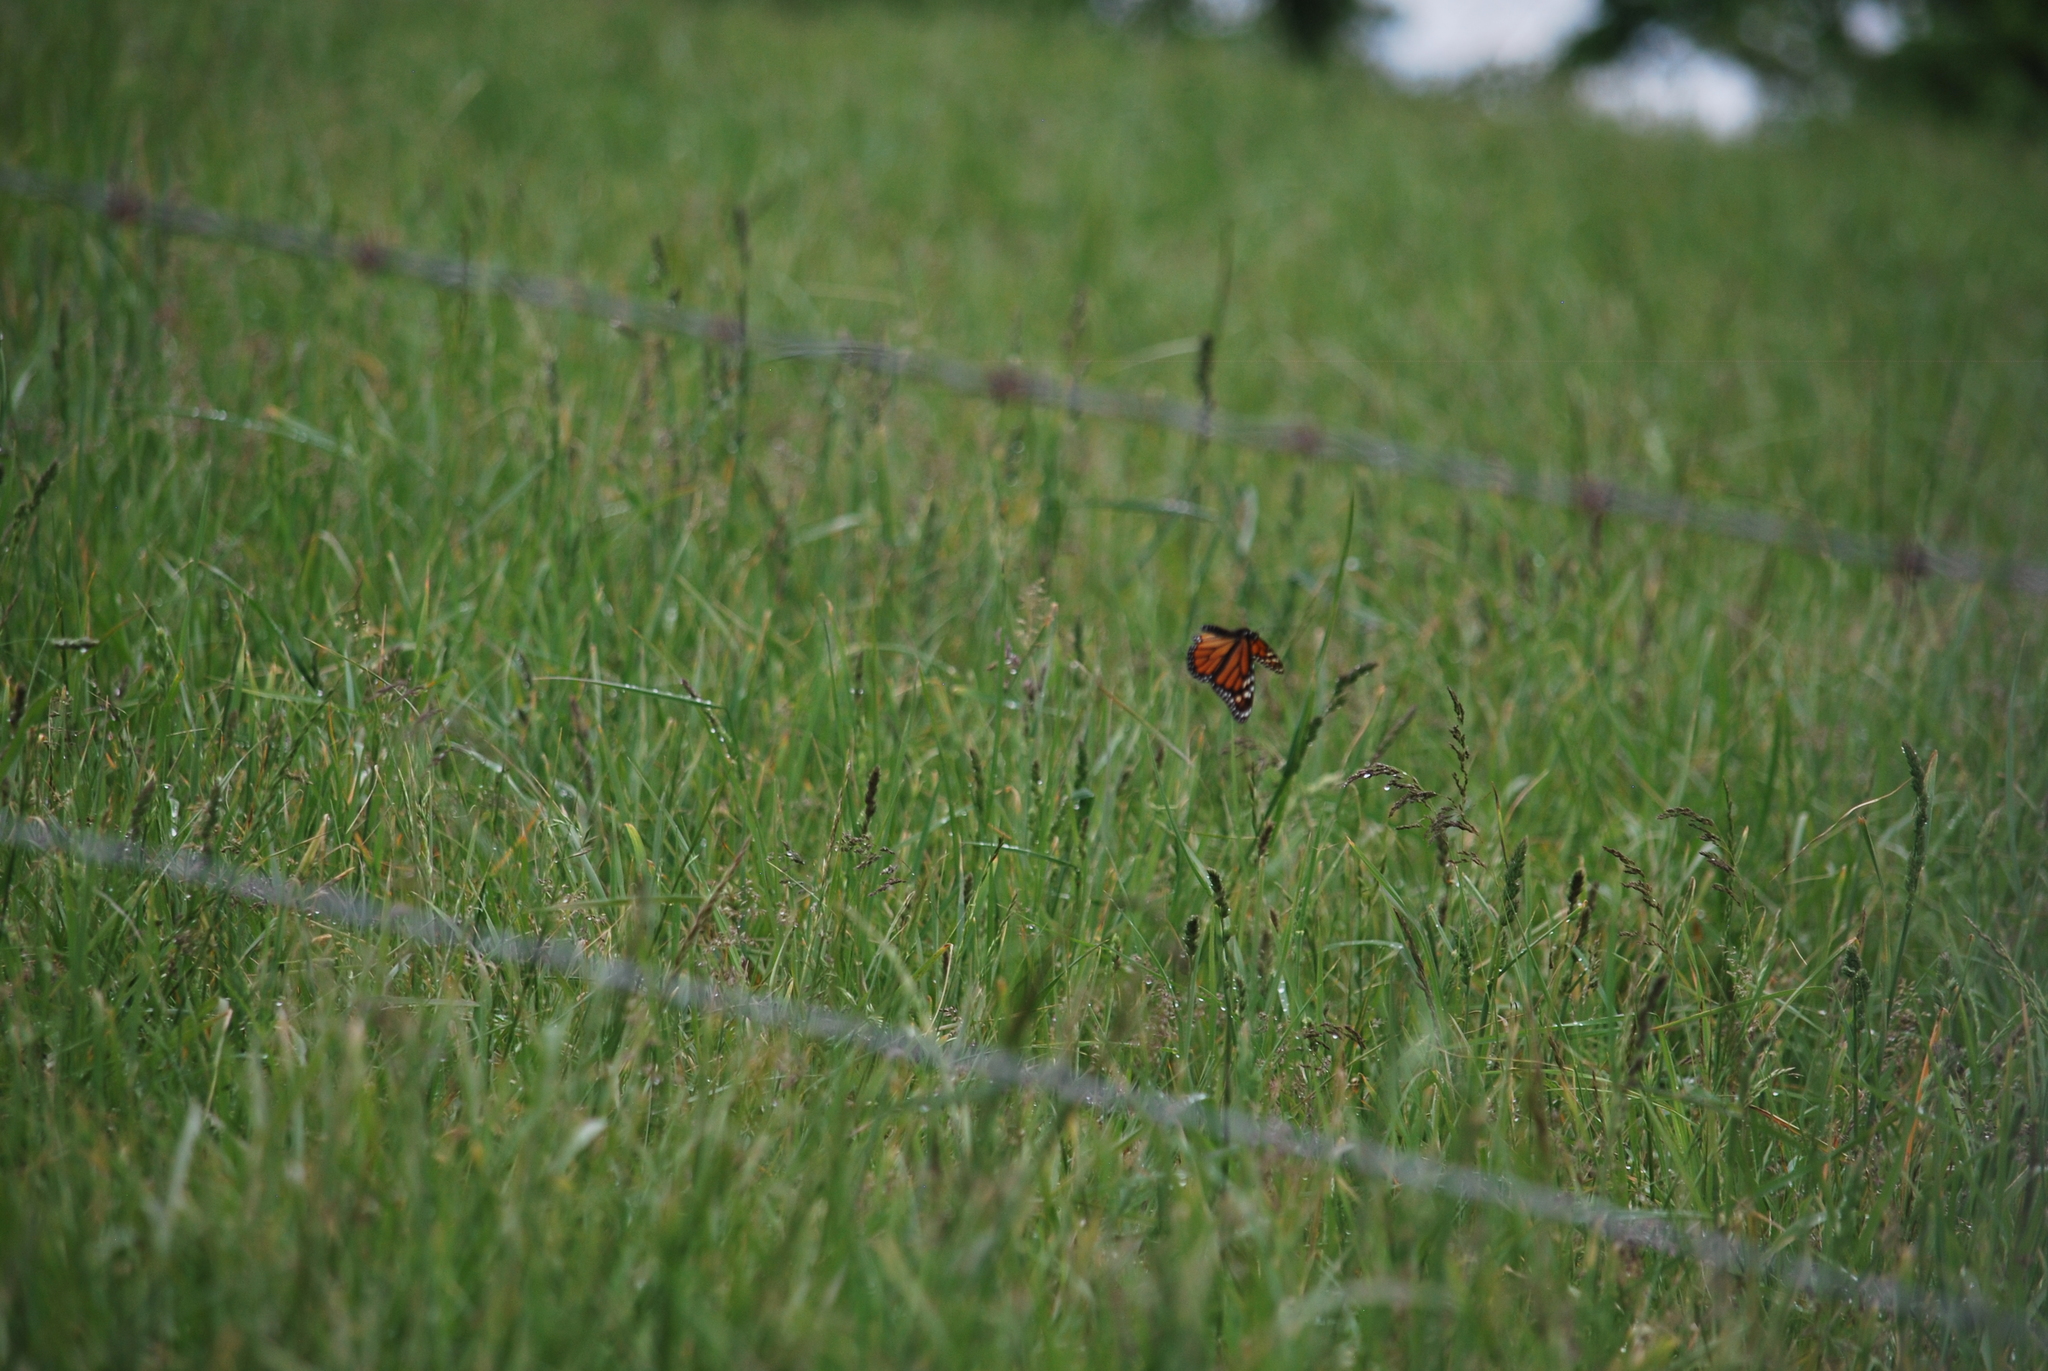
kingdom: Animalia
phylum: Arthropoda
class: Insecta
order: Lepidoptera
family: Nymphalidae
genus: Danaus
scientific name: Danaus plexippus
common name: Monarch
